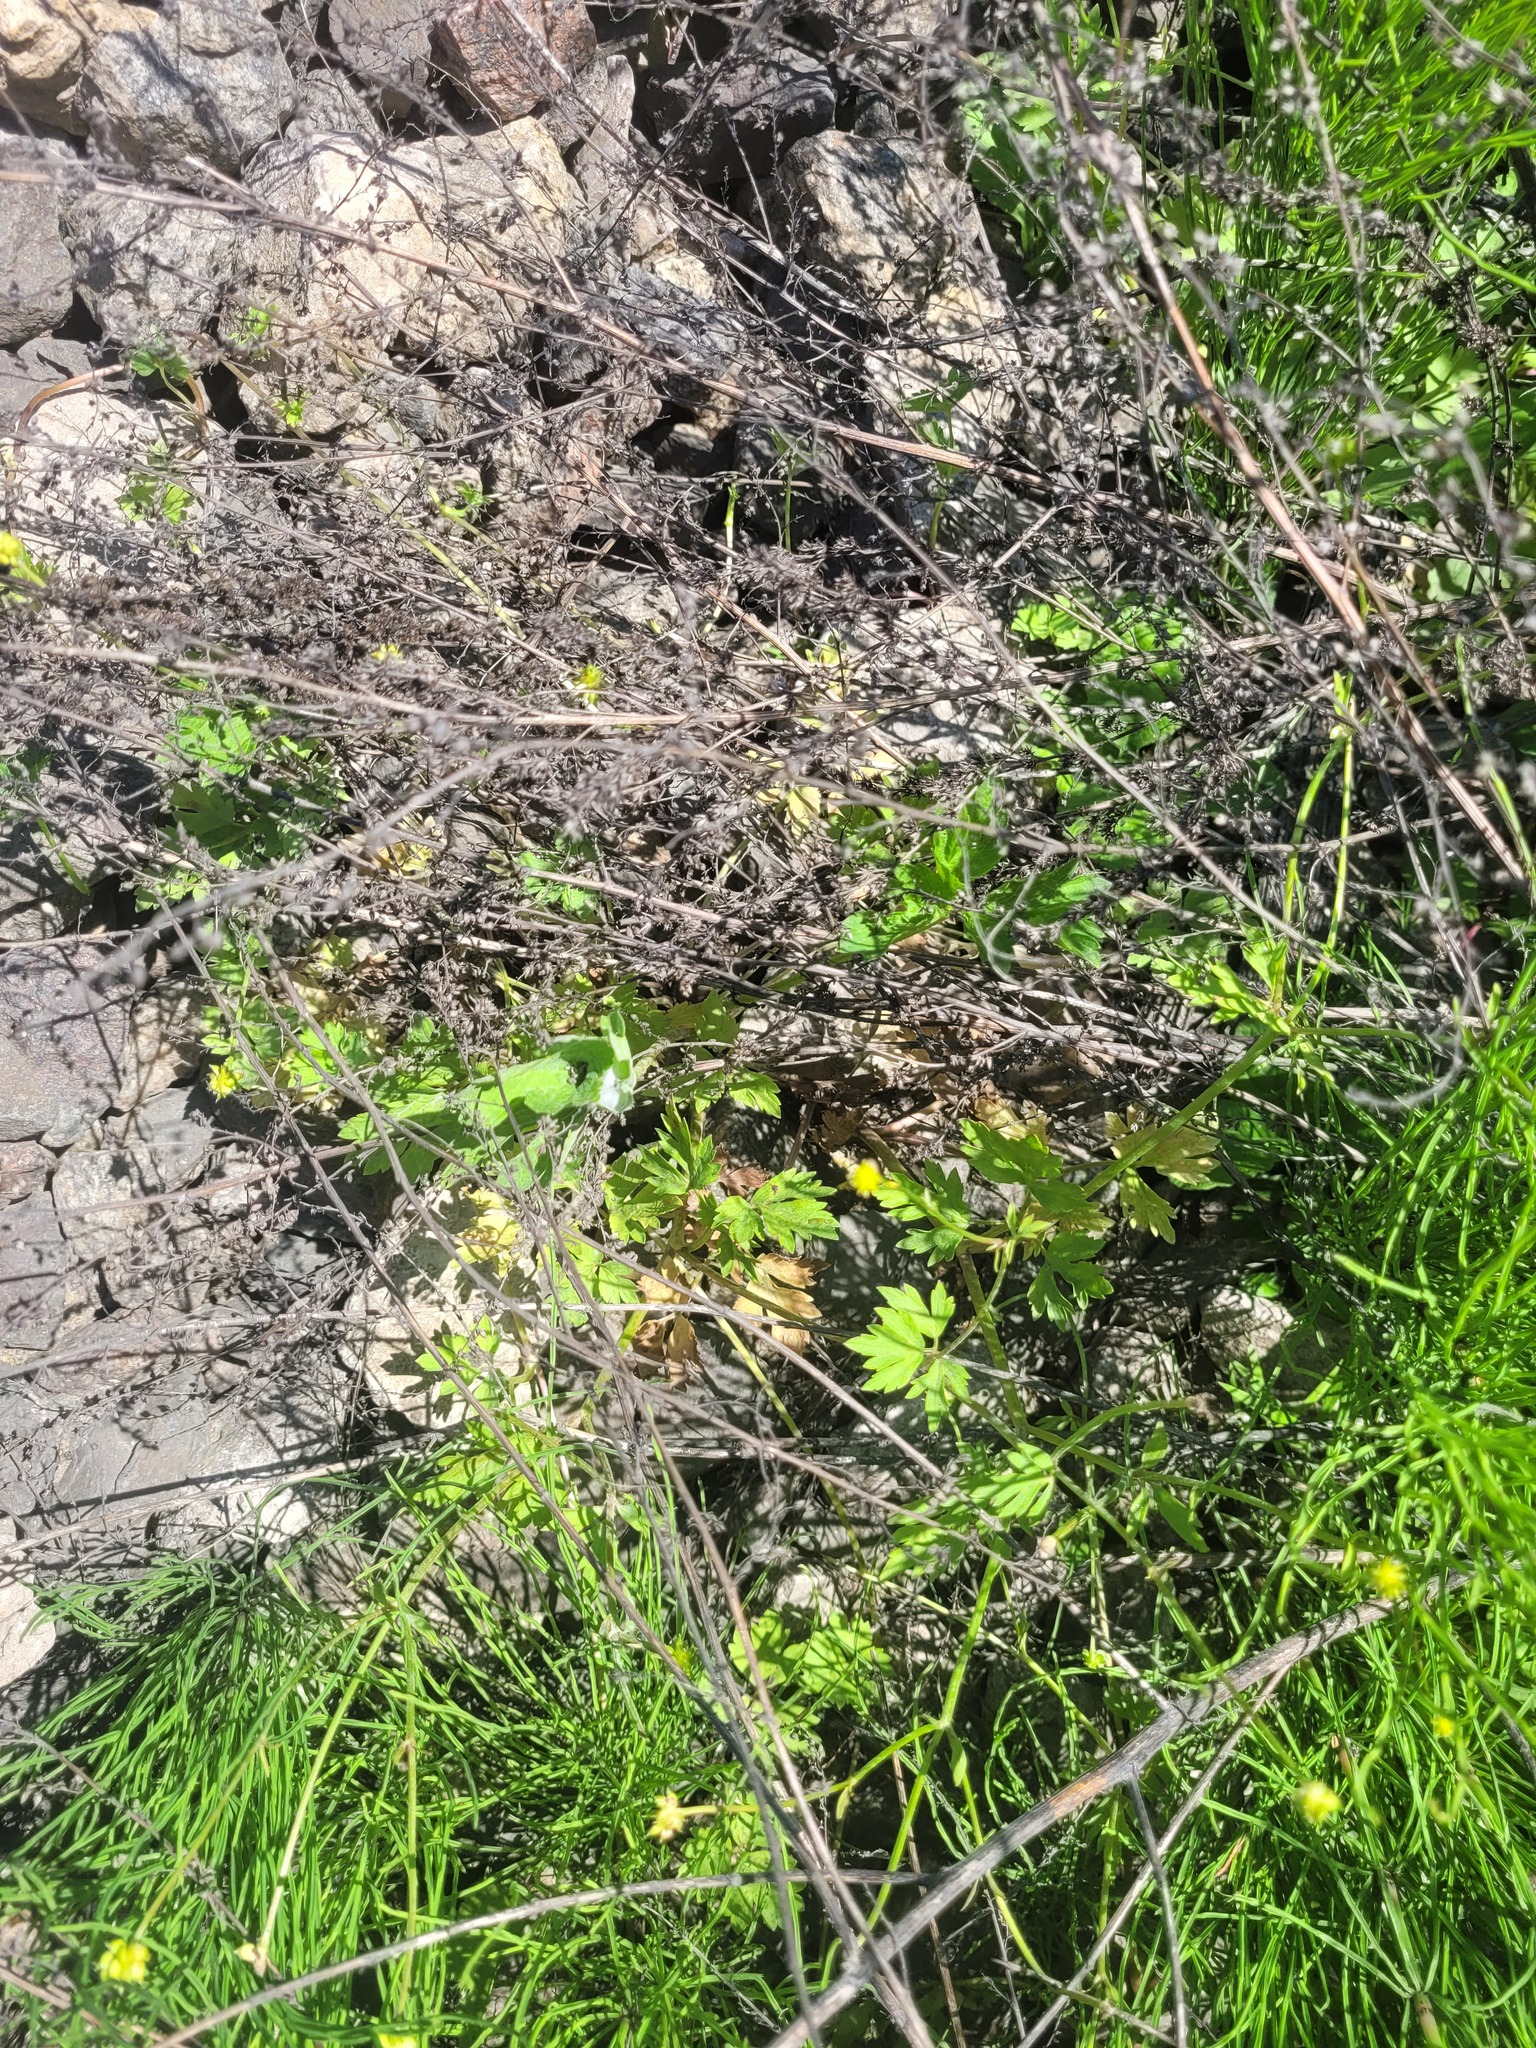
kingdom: Plantae
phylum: Tracheophyta
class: Magnoliopsida
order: Ranunculales
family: Ranunculaceae
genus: Ranunculus
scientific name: Ranunculus repens
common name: Creeping buttercup
